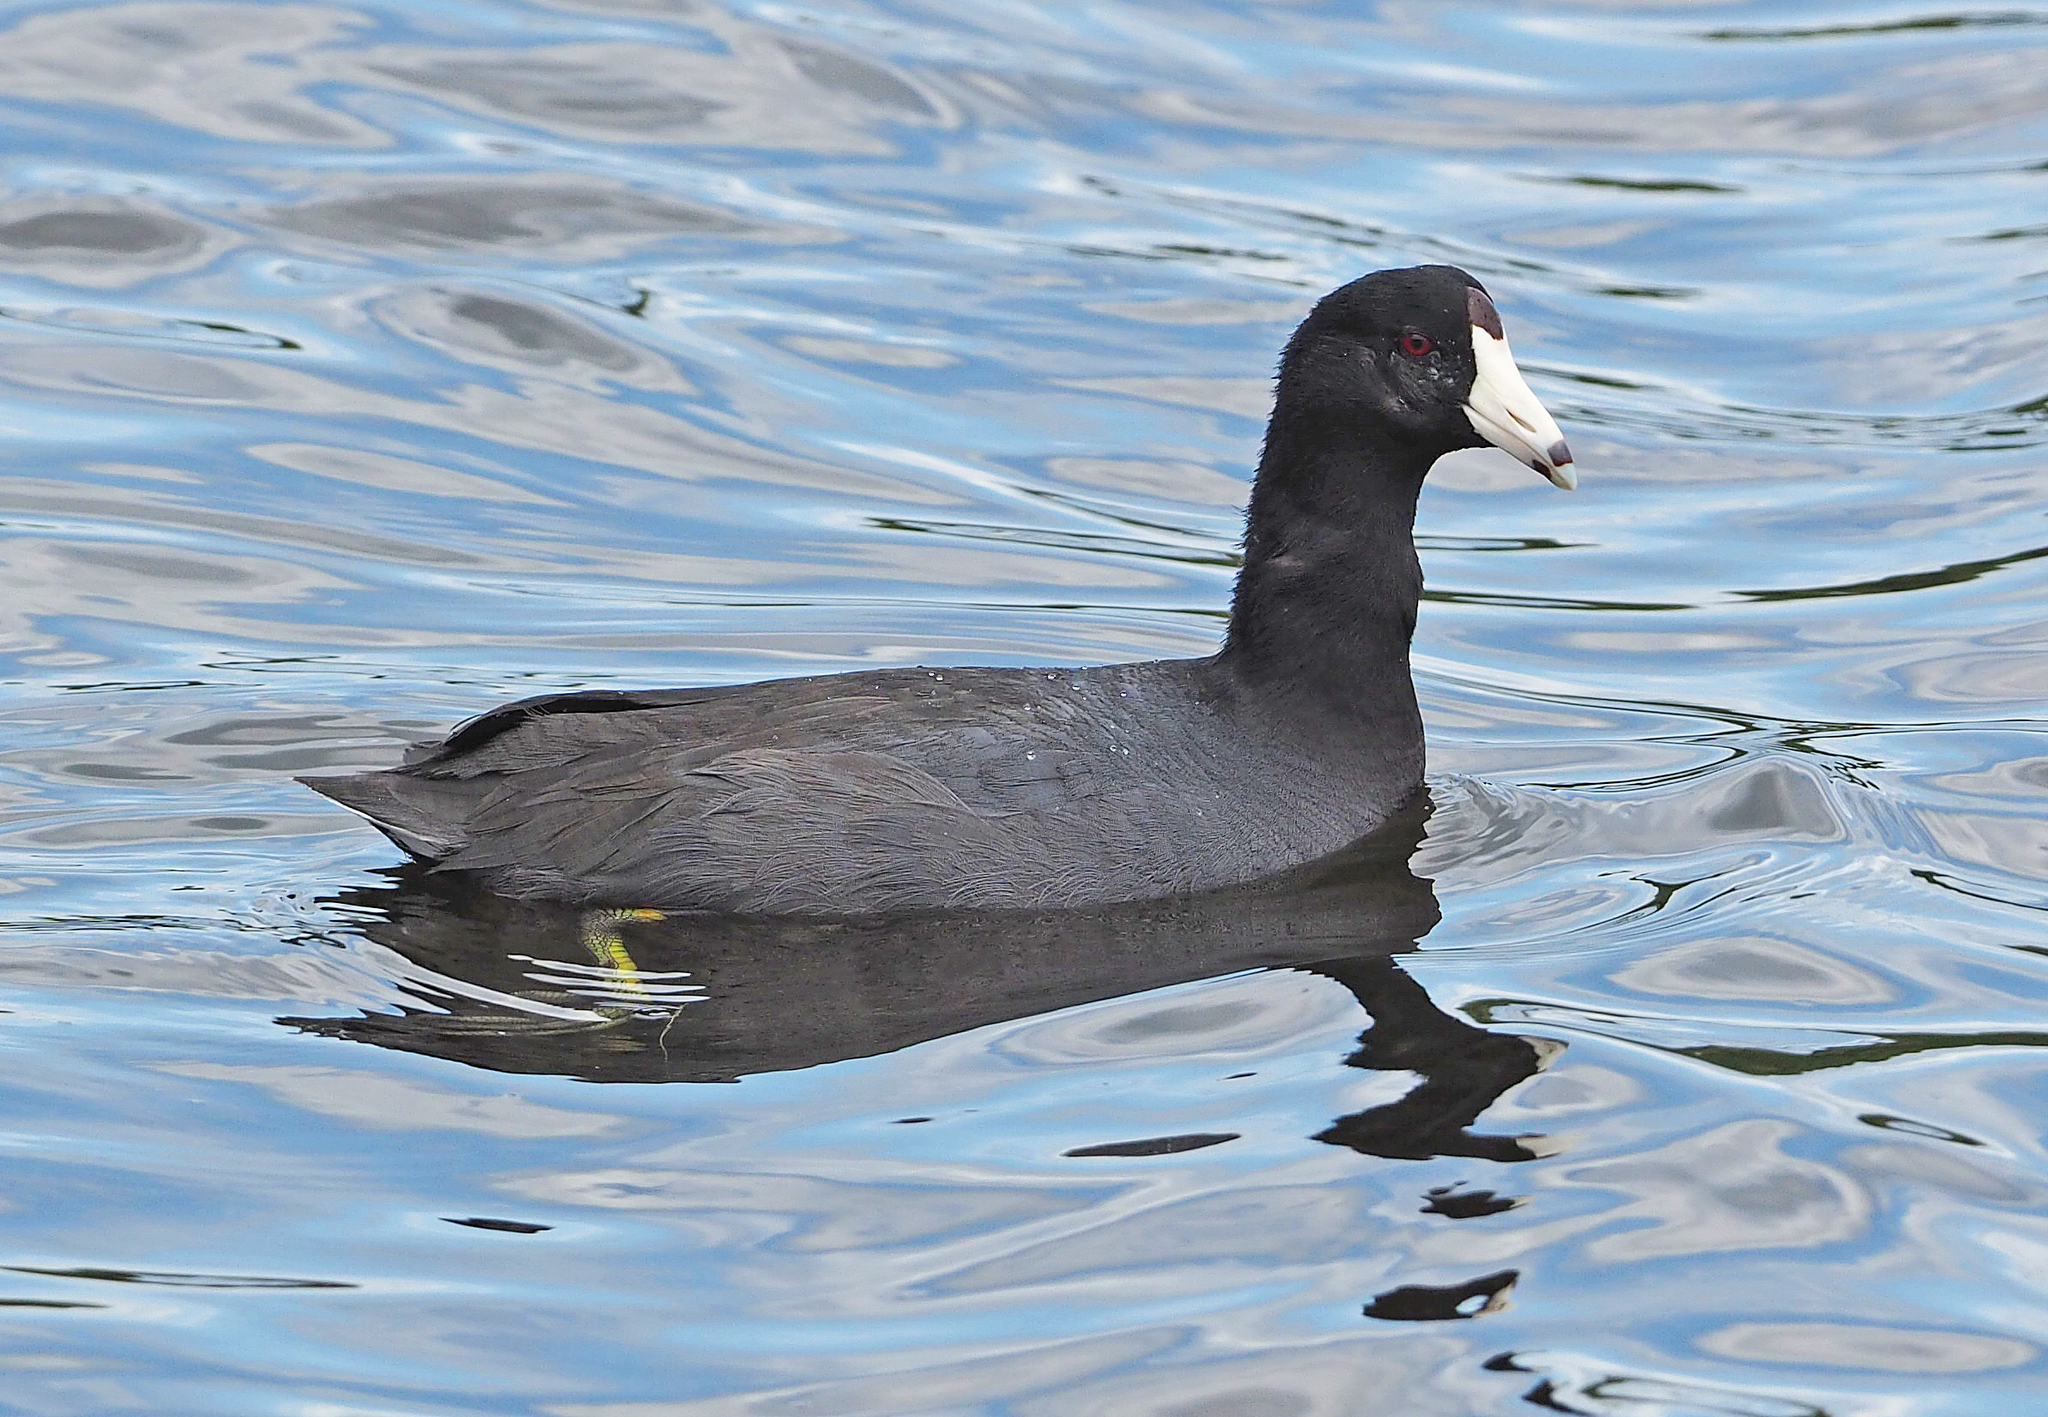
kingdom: Animalia
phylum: Chordata
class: Aves
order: Gruiformes
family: Rallidae
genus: Fulica
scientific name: Fulica americana
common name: American coot
